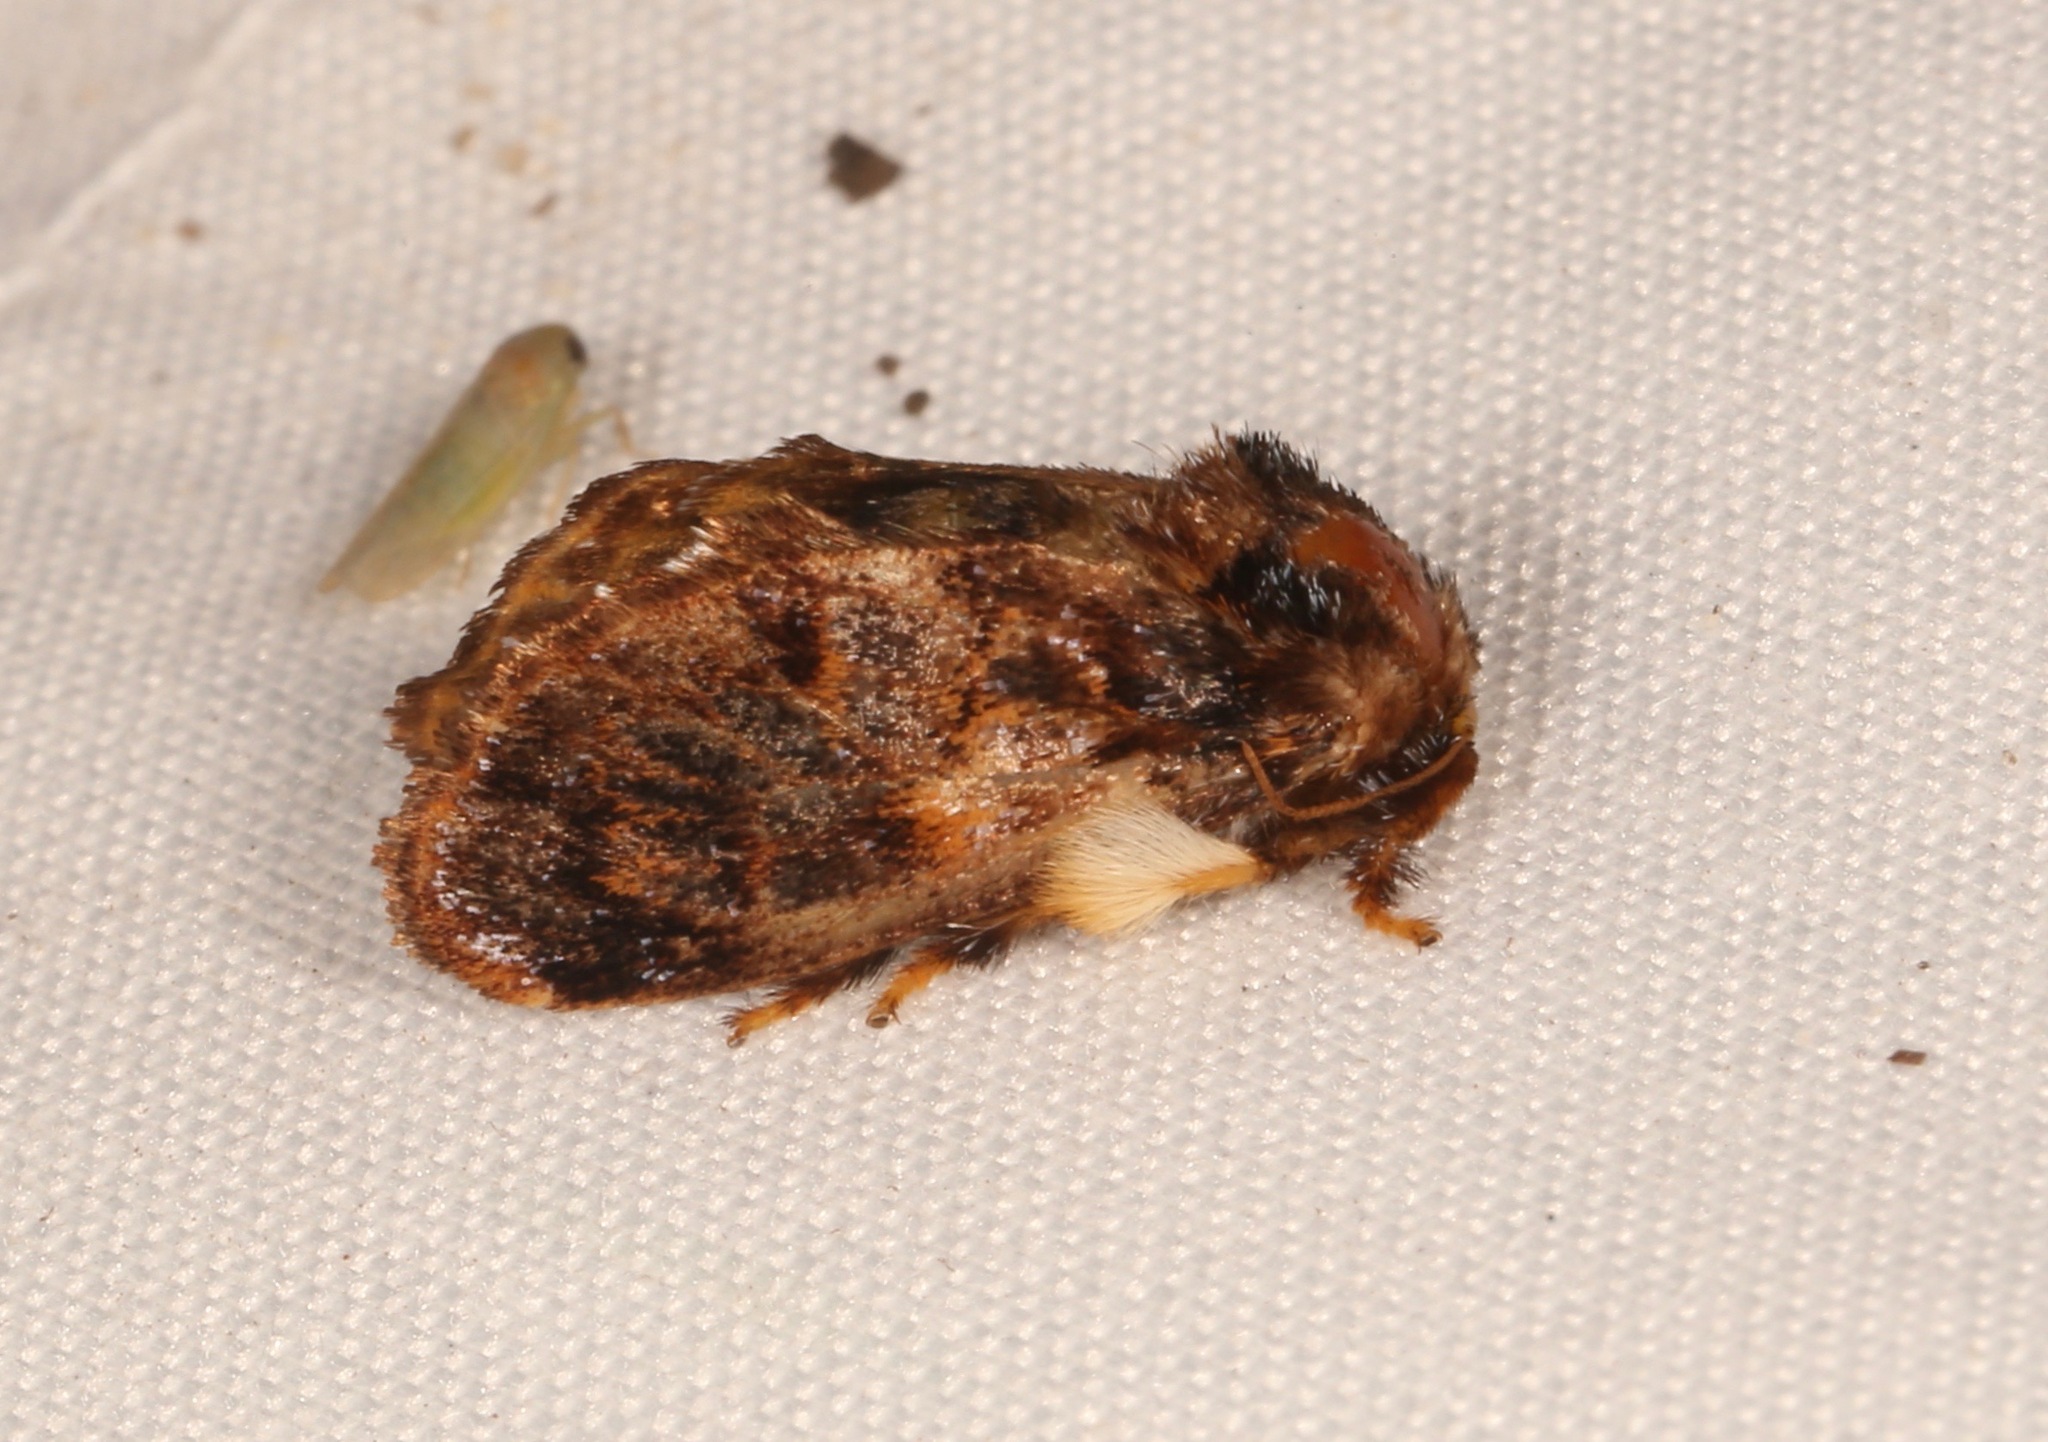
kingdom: Animalia
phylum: Arthropoda
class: Insecta
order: Lepidoptera
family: Limacodidae
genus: Phobetron
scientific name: Phobetron pithecium
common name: Hag moth
